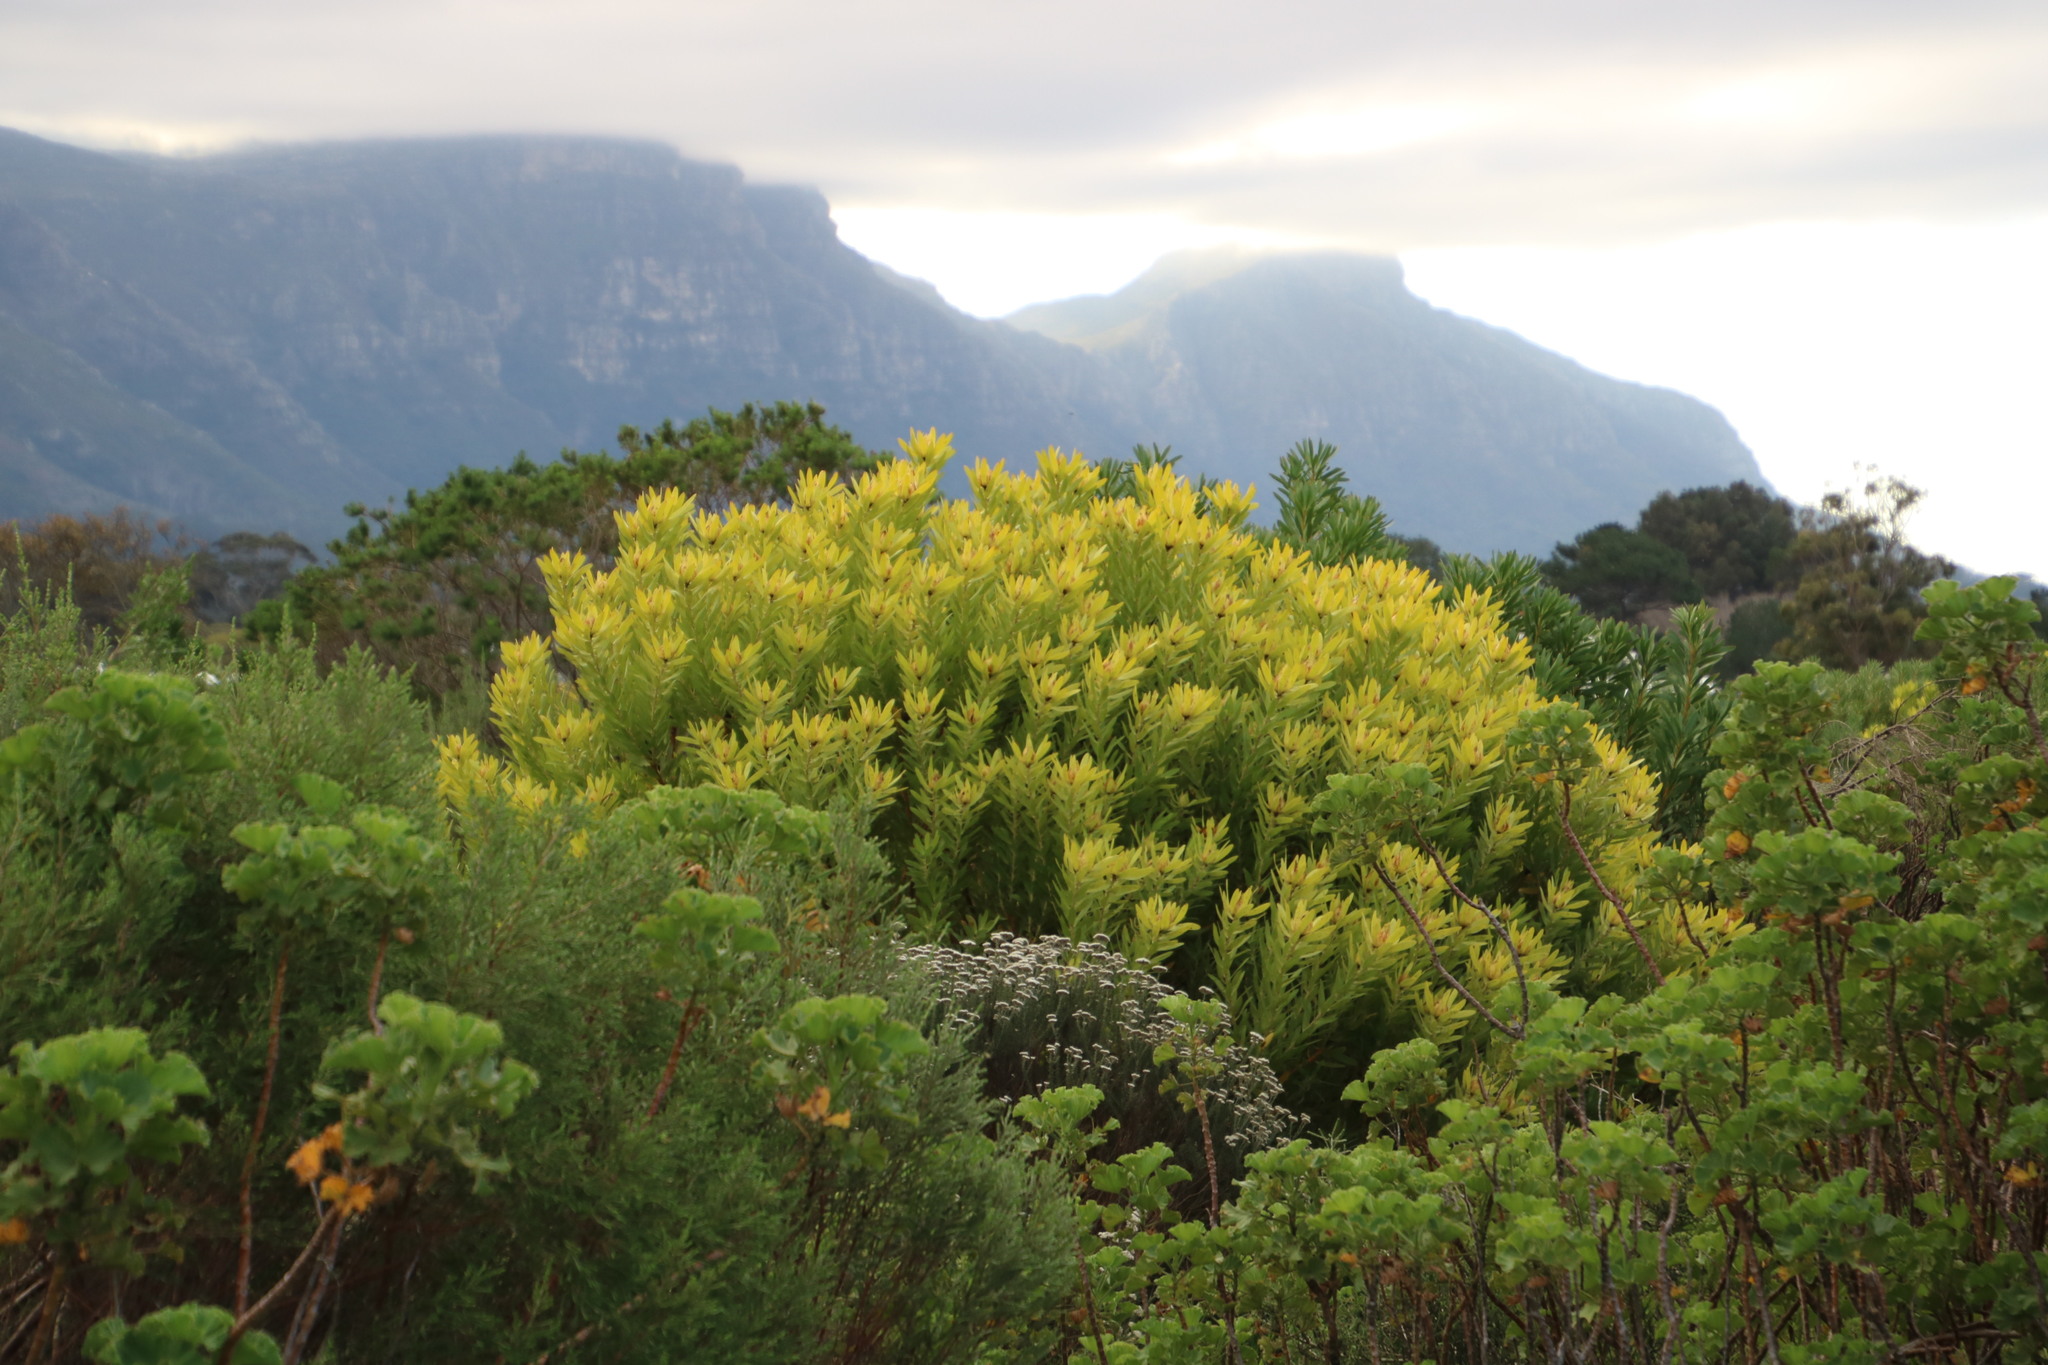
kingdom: Plantae
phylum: Tracheophyta
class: Magnoliopsida
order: Proteales
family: Proteaceae
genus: Leucadendron
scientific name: Leucadendron laureolum
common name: Golden sunshinebush
